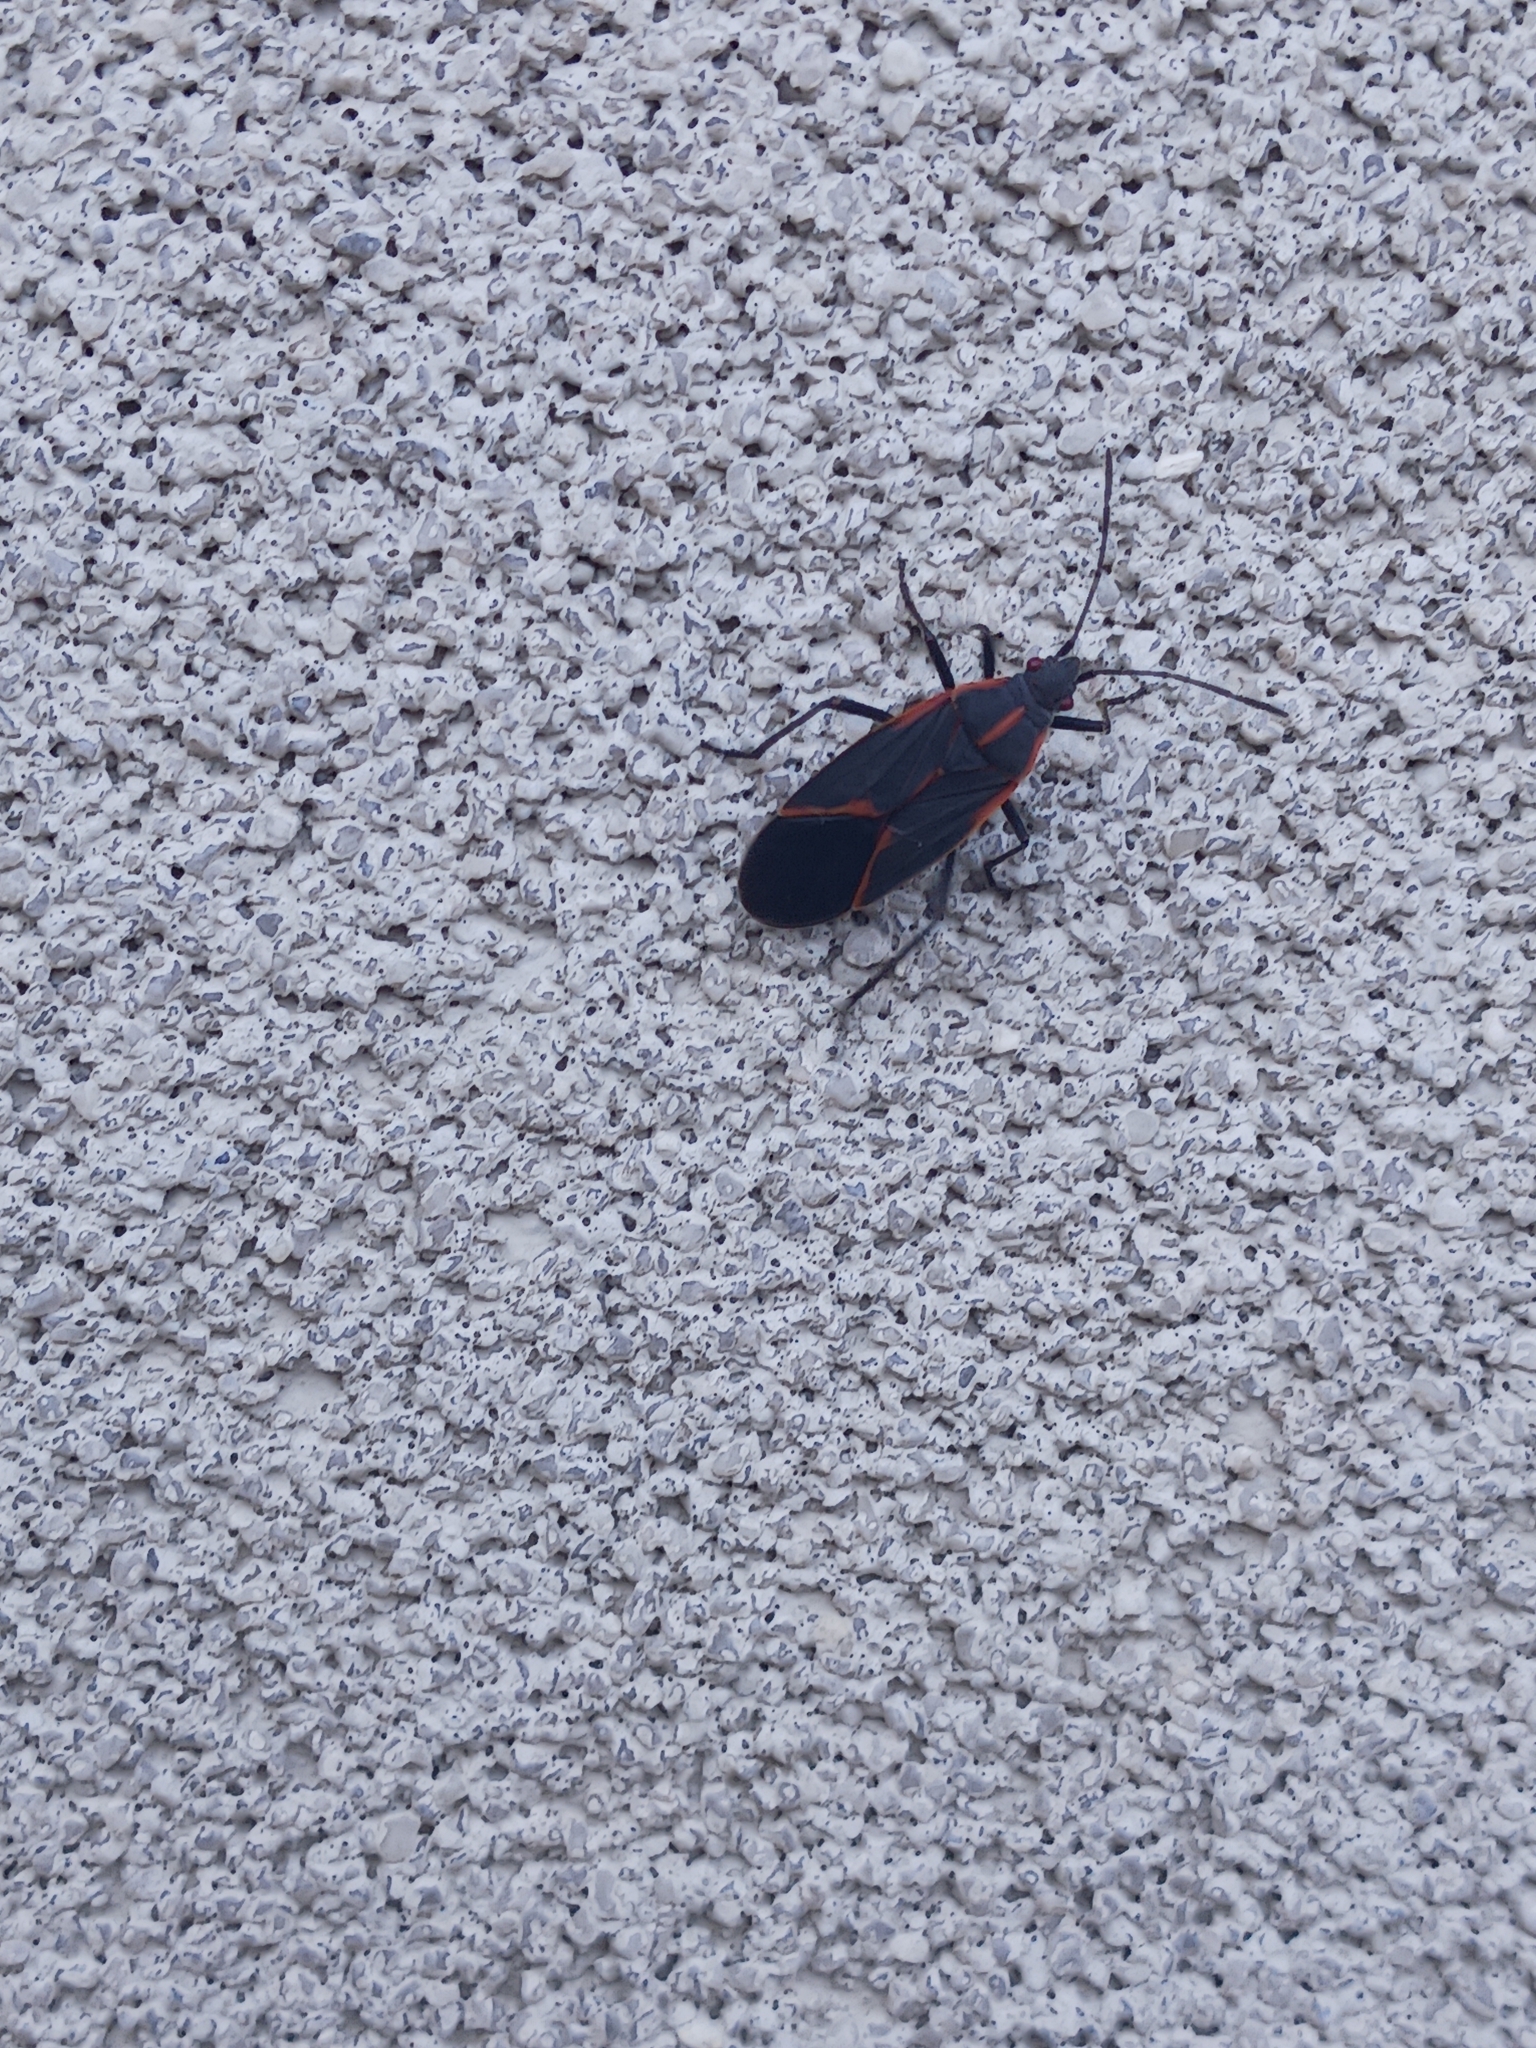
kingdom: Animalia
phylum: Arthropoda
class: Insecta
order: Hemiptera
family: Rhopalidae
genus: Boisea
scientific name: Boisea trivittata
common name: Boxelder bug
